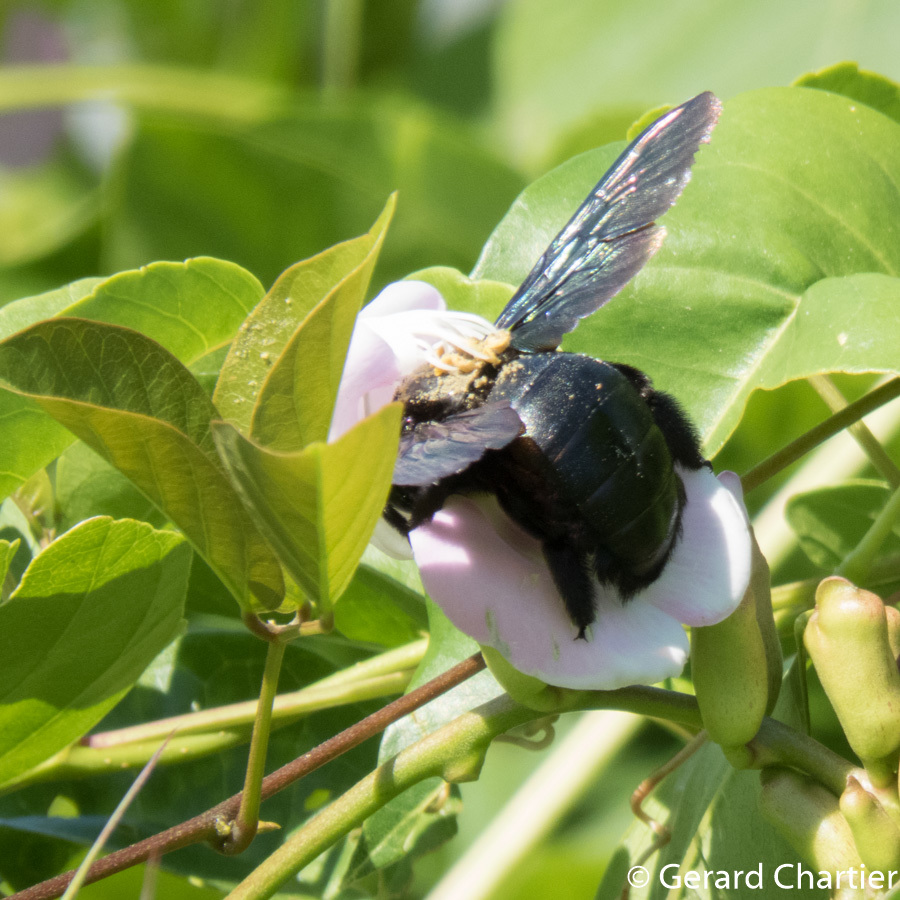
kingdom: Animalia
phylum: Arthropoda
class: Insecta
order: Hymenoptera
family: Apidae
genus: Xylocopa
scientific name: Xylocopa latipes
